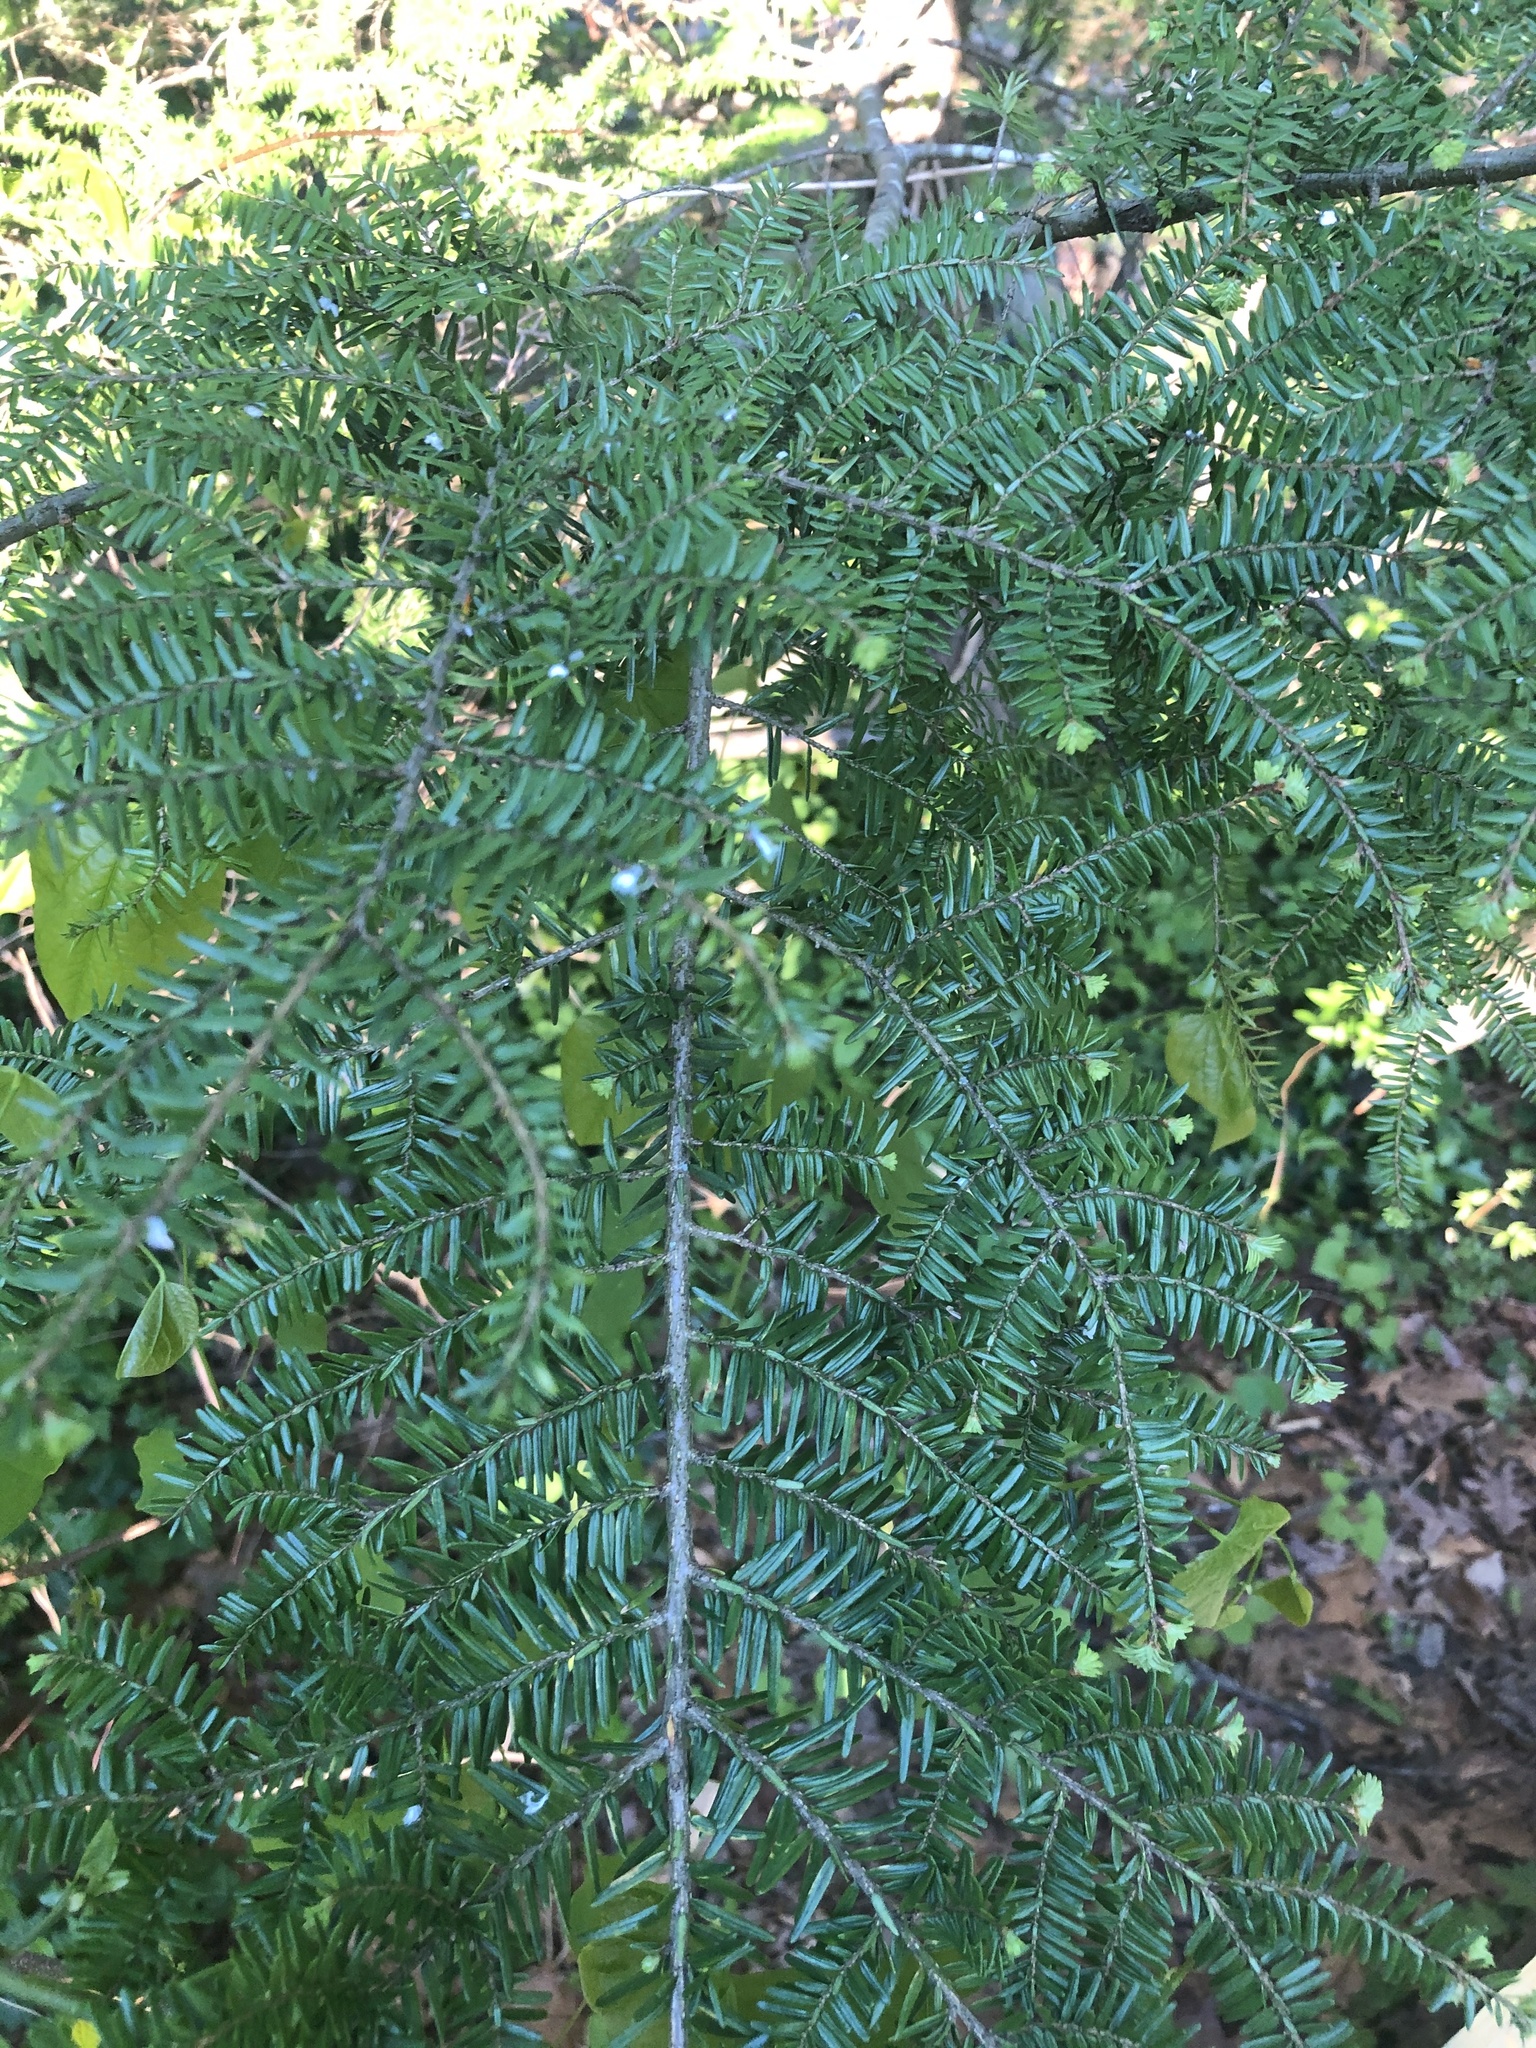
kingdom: Animalia
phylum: Arthropoda
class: Insecta
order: Hemiptera
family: Adelgidae
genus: Adelges
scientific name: Adelges tsugae
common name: Hemlock woolly adelgid
